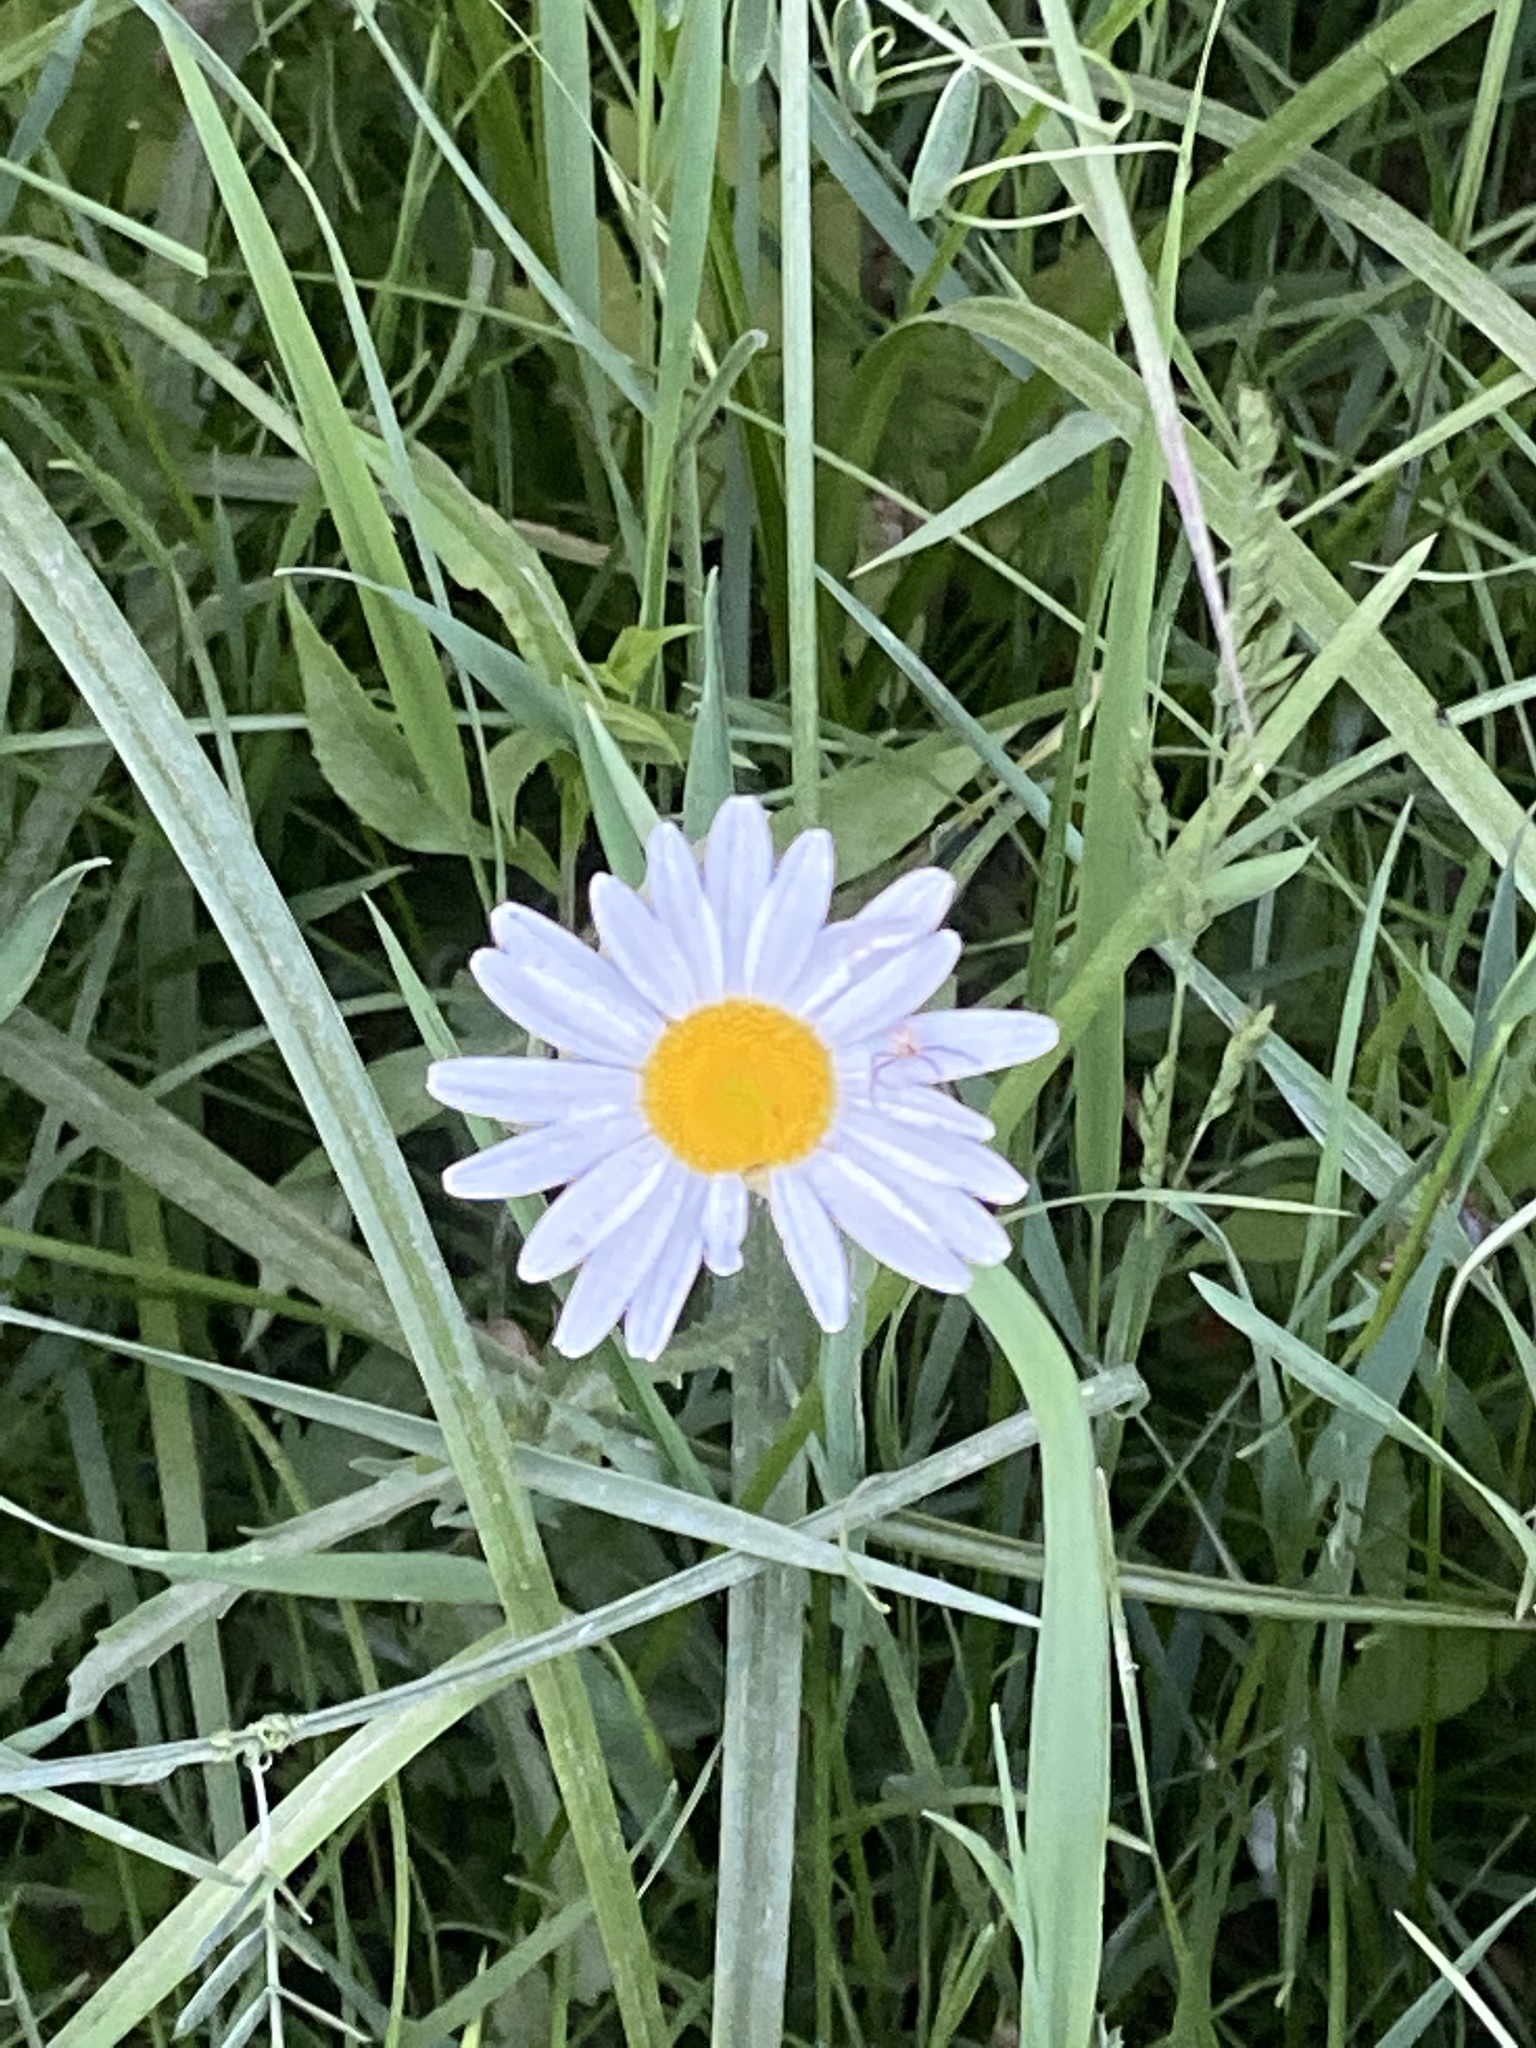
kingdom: Plantae
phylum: Tracheophyta
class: Magnoliopsida
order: Asterales
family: Asteraceae
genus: Leucanthemum
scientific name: Leucanthemum vulgare
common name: Oxeye daisy
